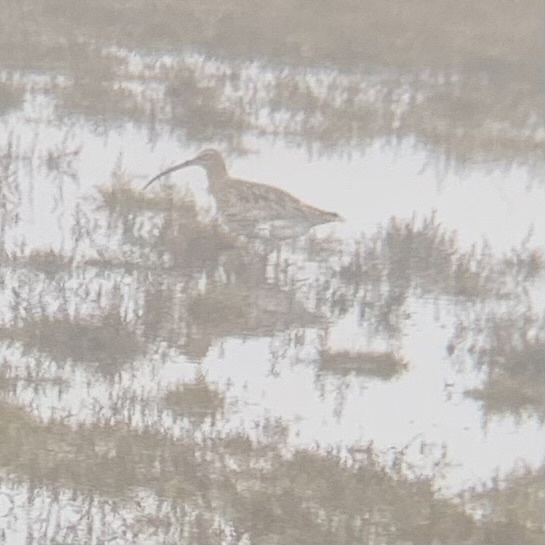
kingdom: Animalia
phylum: Chordata
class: Aves
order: Charadriiformes
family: Scolopacidae
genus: Numenius
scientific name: Numenius arquata
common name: Eurasian curlew
